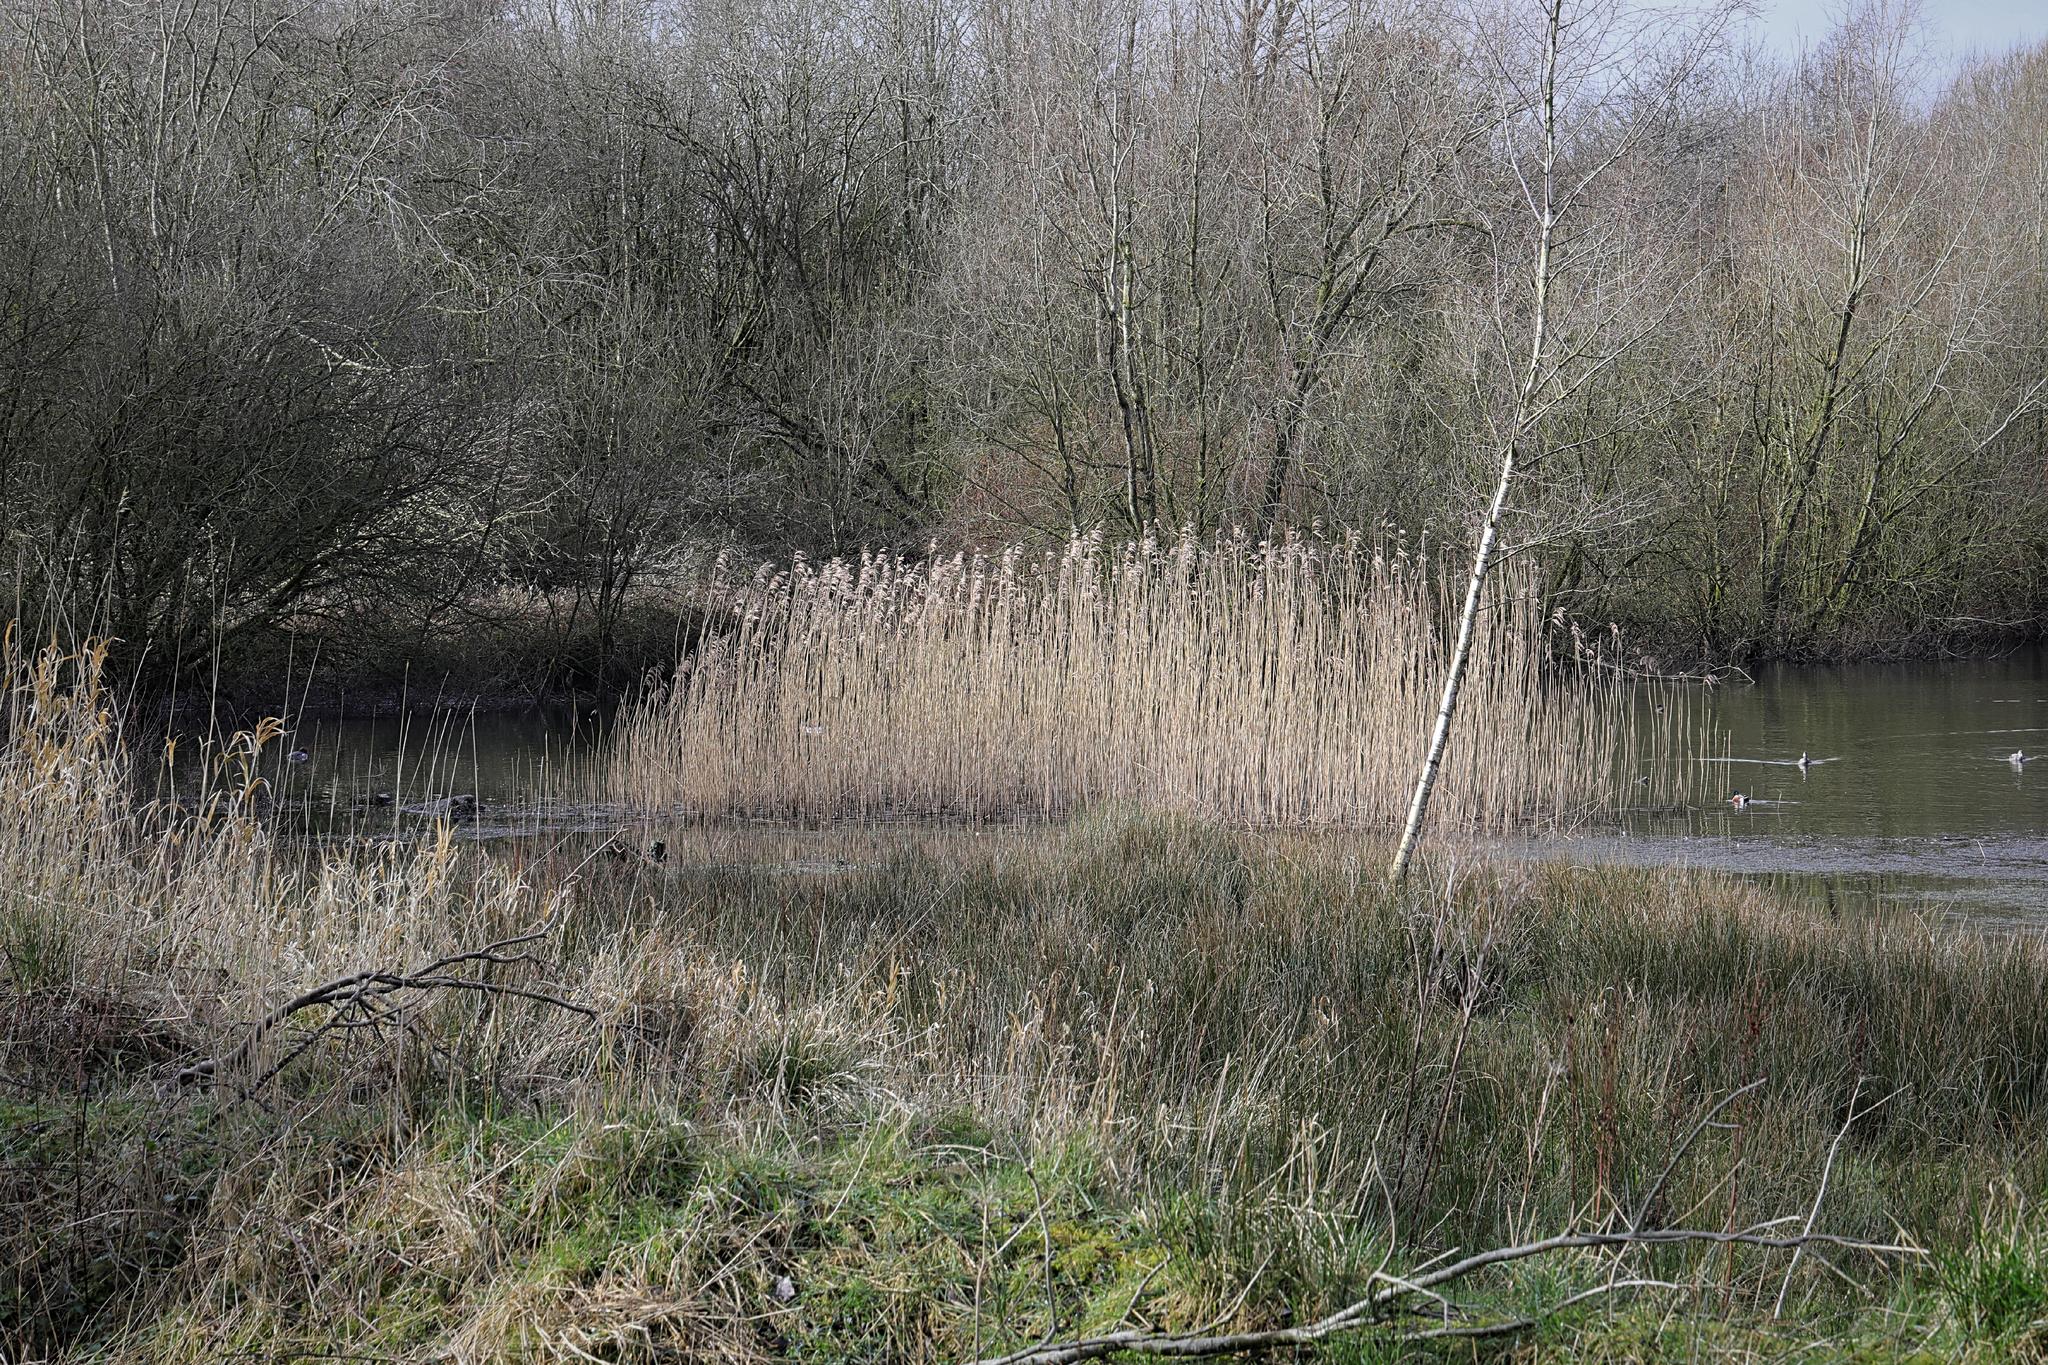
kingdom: Plantae
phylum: Tracheophyta
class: Liliopsida
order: Poales
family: Poaceae
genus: Phragmites
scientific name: Phragmites australis
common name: Common reed
